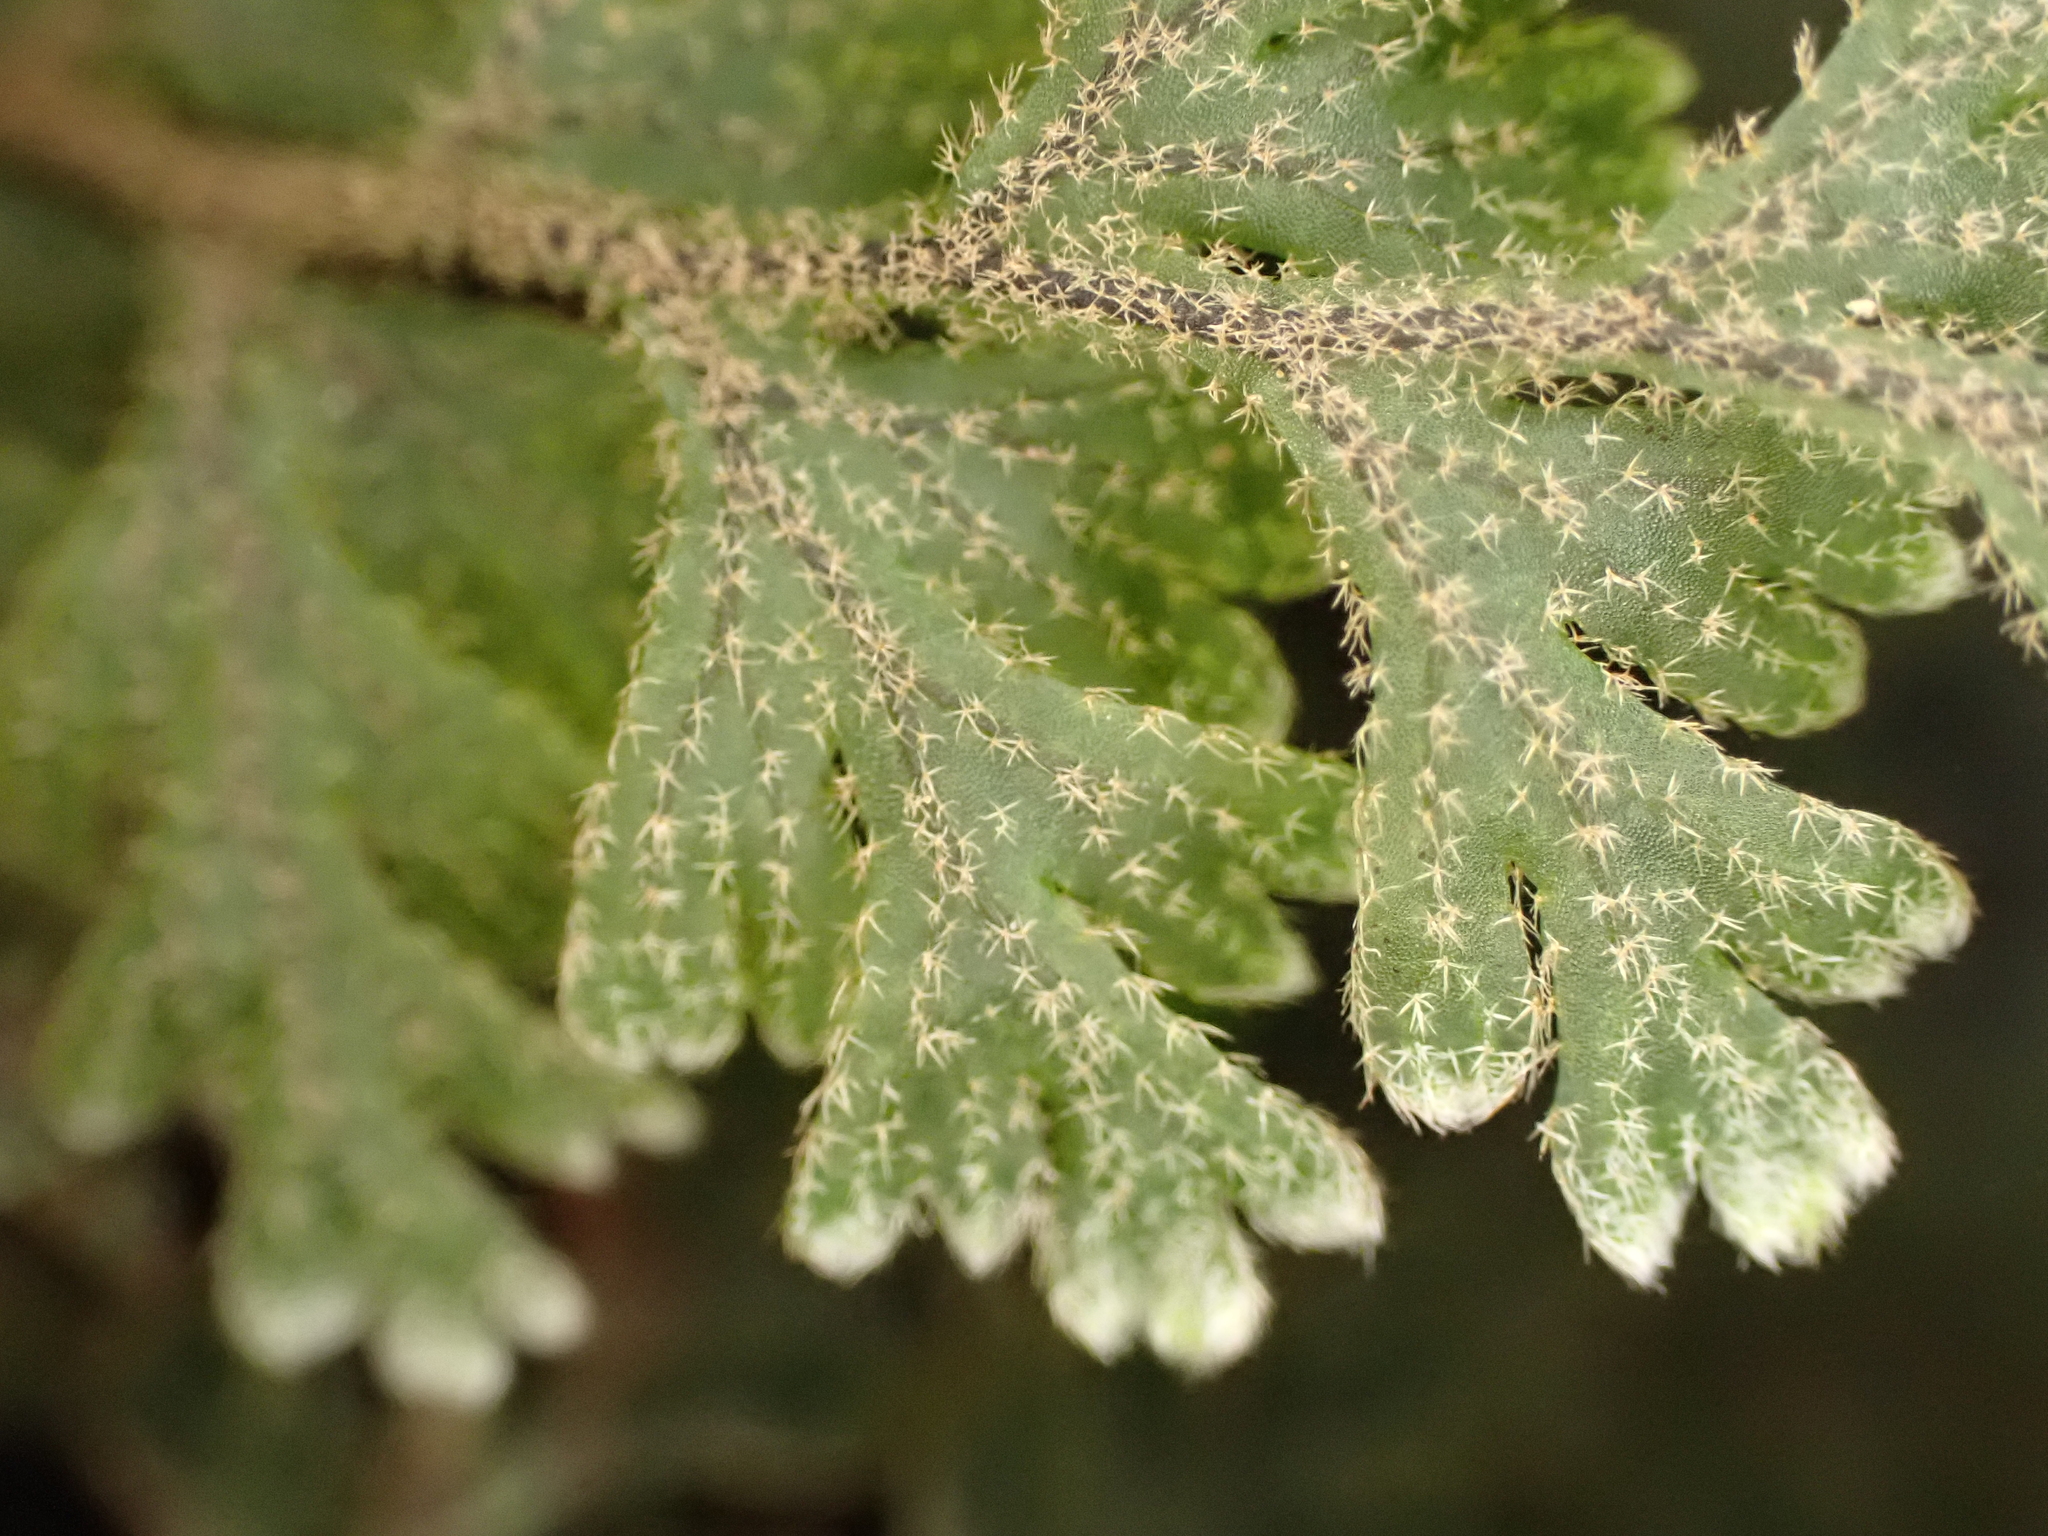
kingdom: Plantae
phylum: Tracheophyta
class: Polypodiopsida
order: Hymenophyllales
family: Hymenophyllaceae
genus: Hymenophyllum
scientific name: Hymenophyllum frankliniae
